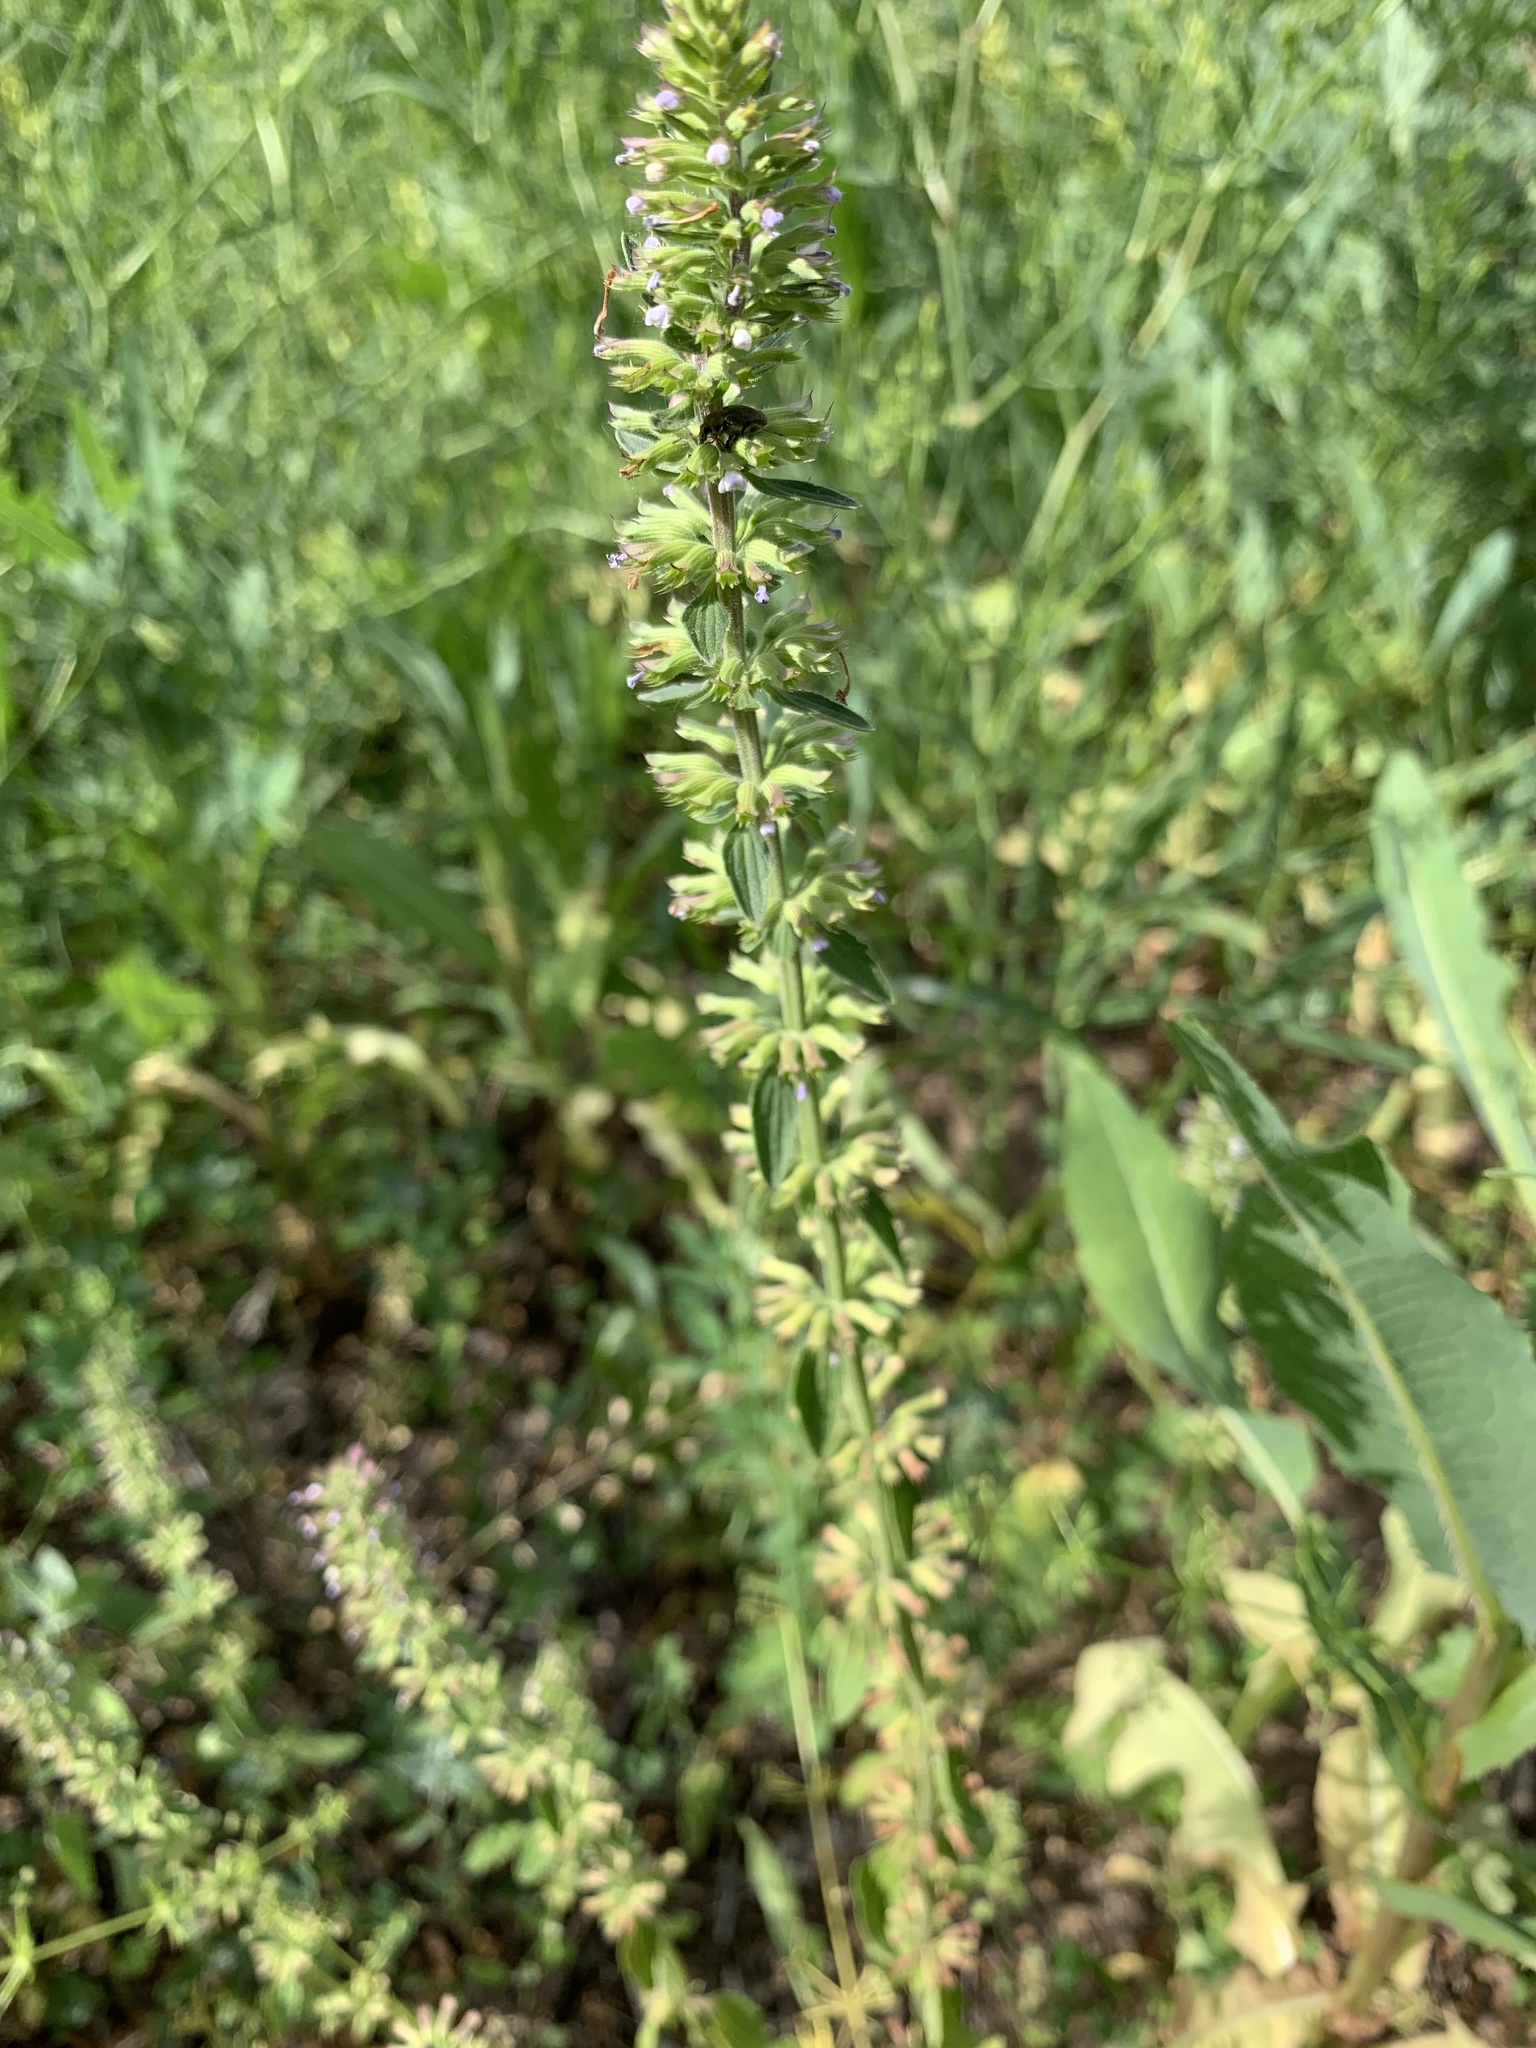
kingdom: Plantae
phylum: Tracheophyta
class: Magnoliopsida
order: Lamiales
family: Lamiaceae
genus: Dracocephalum
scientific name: Dracocephalum thymiflorum
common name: Thymeleaf dragonhead
